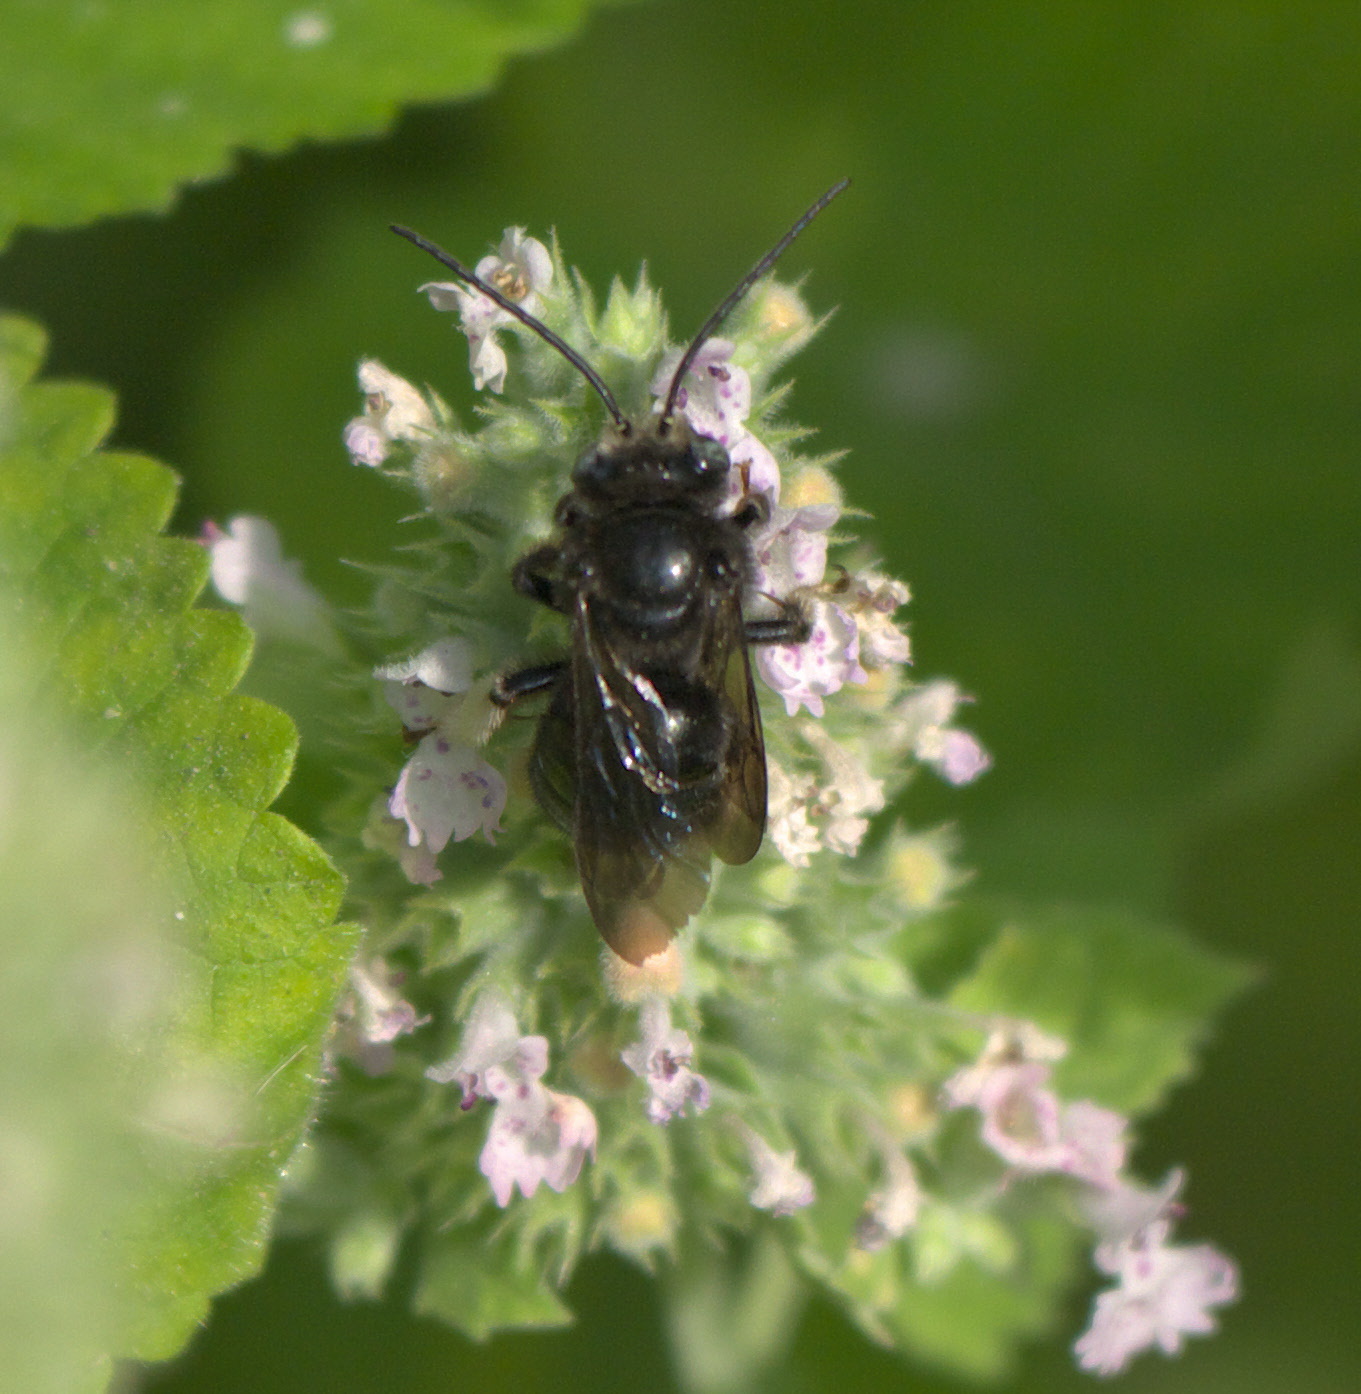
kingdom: Animalia
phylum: Arthropoda
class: Insecta
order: Hymenoptera
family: Apidae
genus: Melissodes
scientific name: Melissodes bimaculatus
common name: Two-spotted long-horned bee
